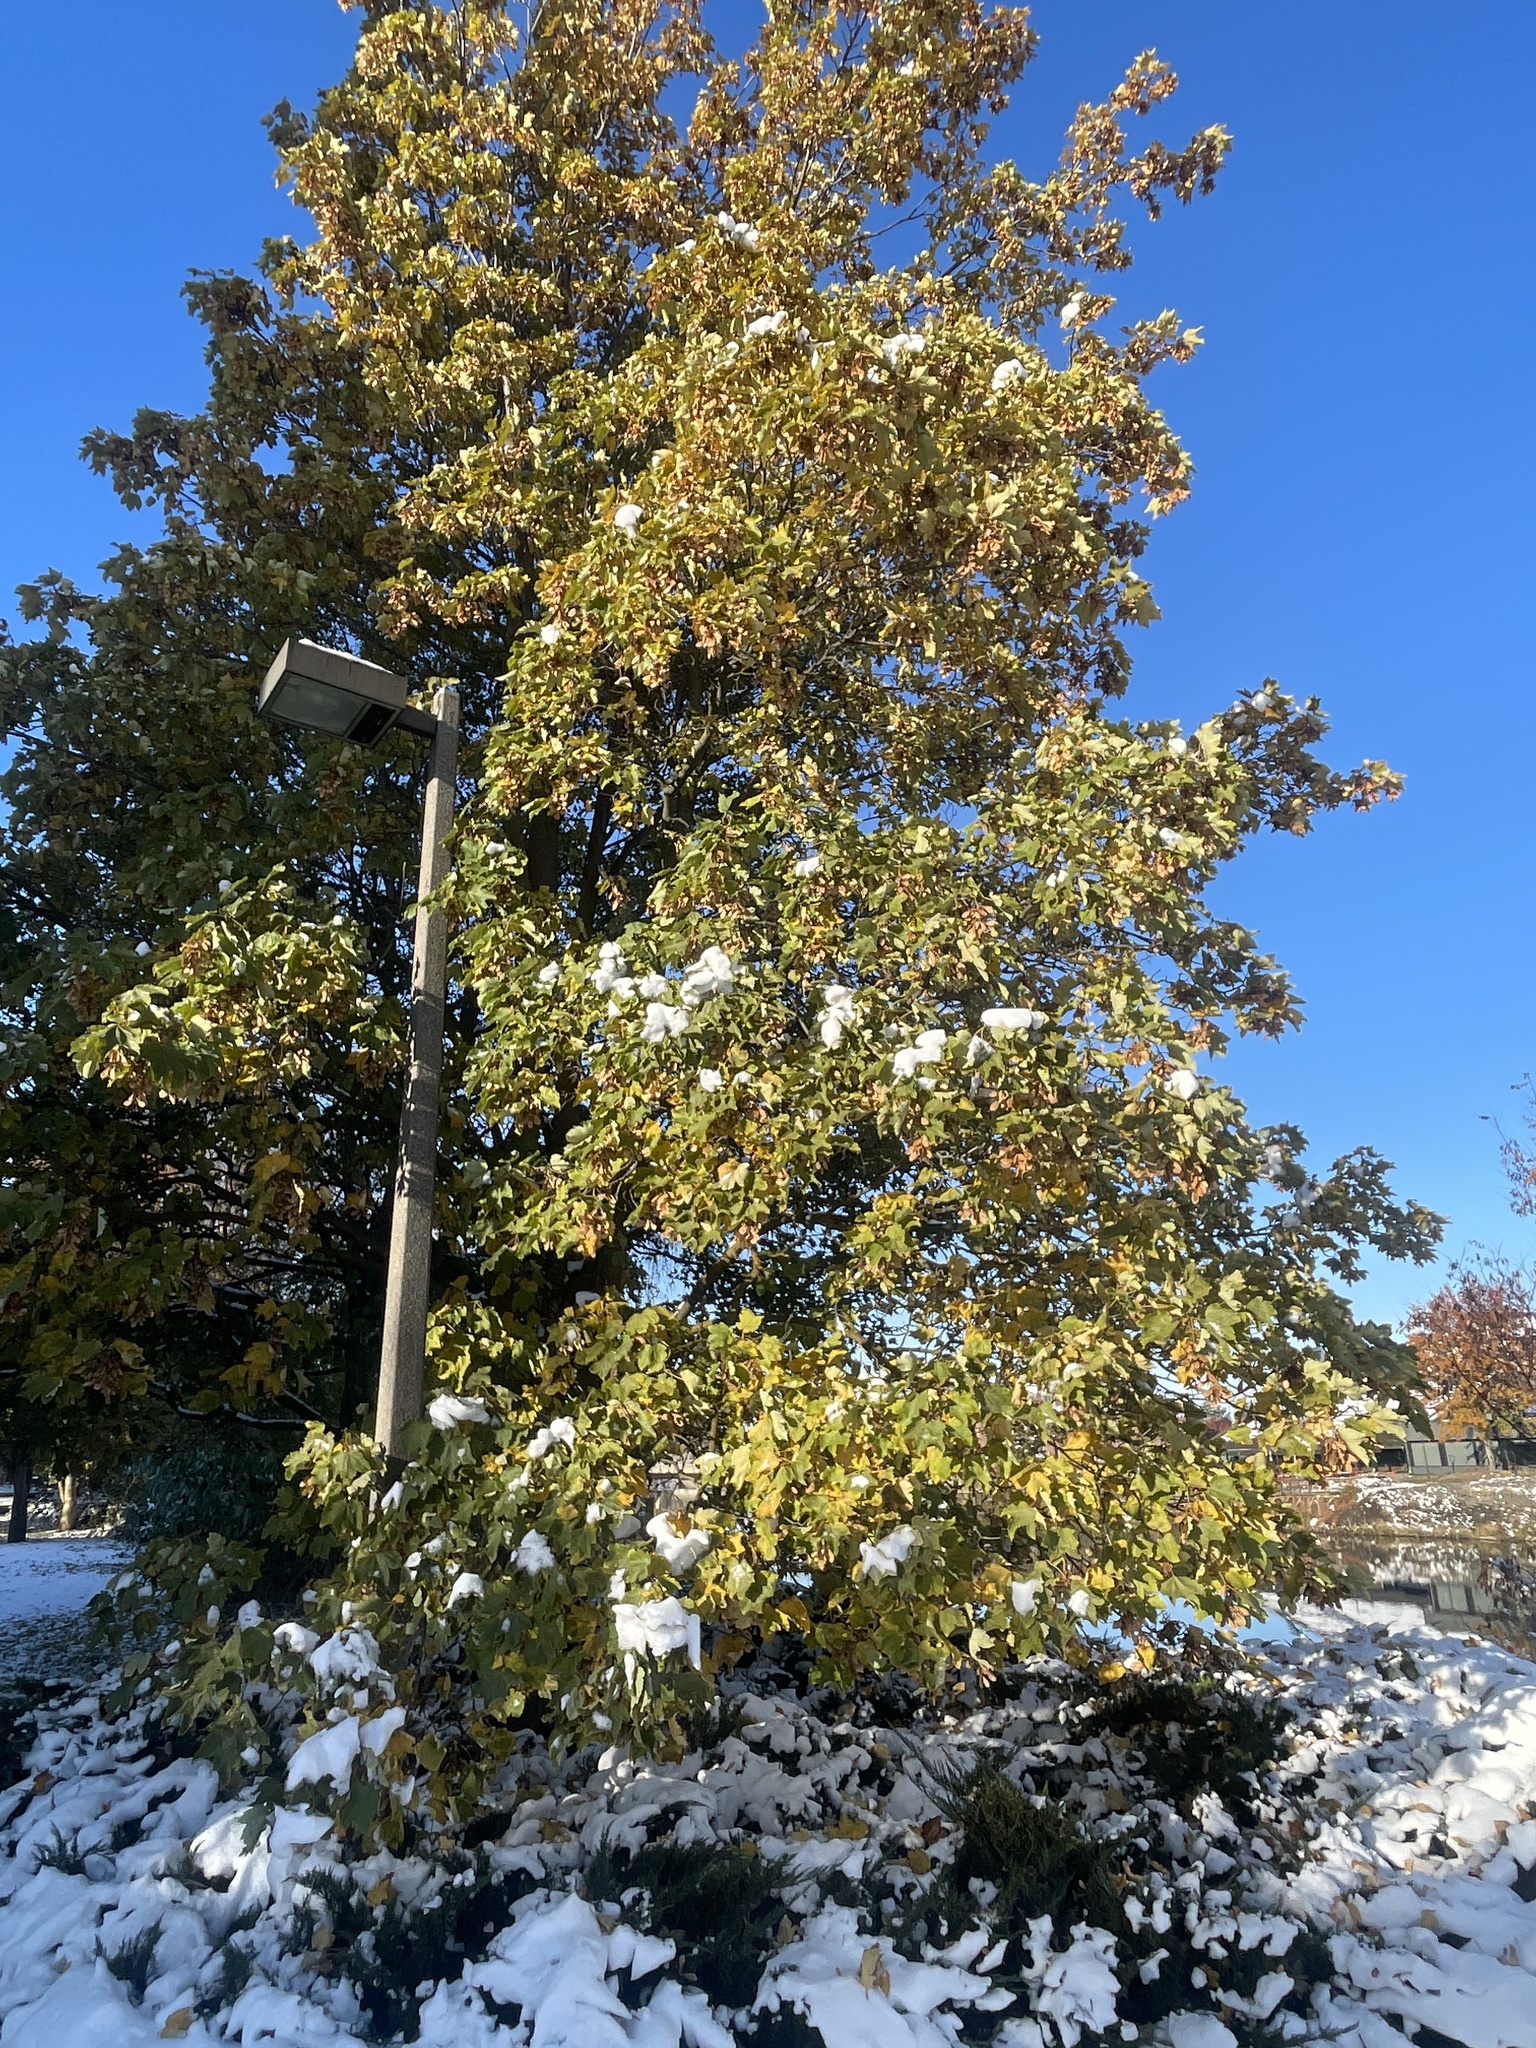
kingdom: Plantae
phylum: Tracheophyta
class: Magnoliopsida
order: Sapindales
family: Sapindaceae
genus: Acer
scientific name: Acer pseudoplatanus
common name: Sycamore
